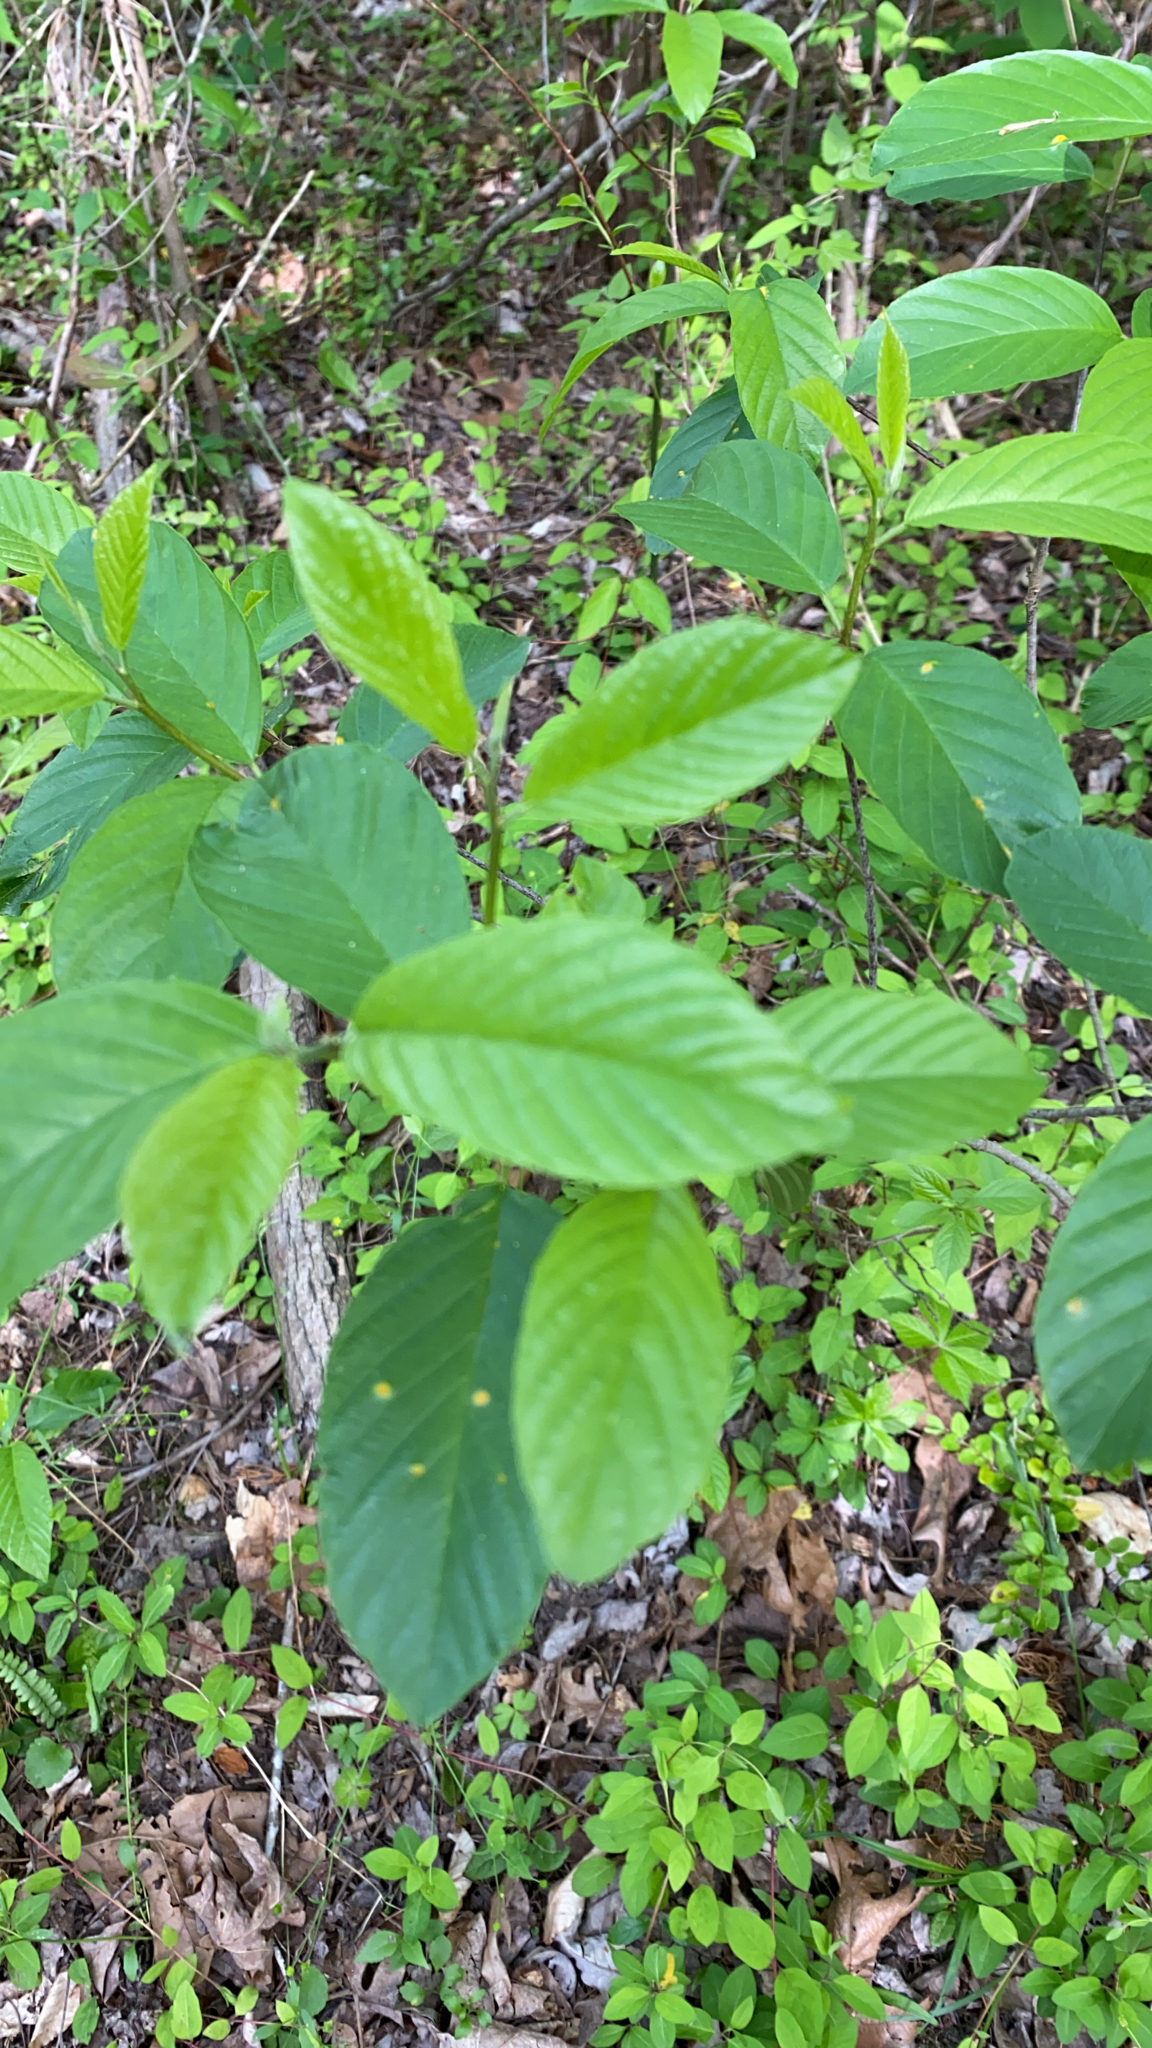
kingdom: Plantae
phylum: Tracheophyta
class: Magnoliopsida
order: Rosales
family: Rhamnaceae
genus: Frangula
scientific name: Frangula caroliniana
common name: Carolina buckthorn
